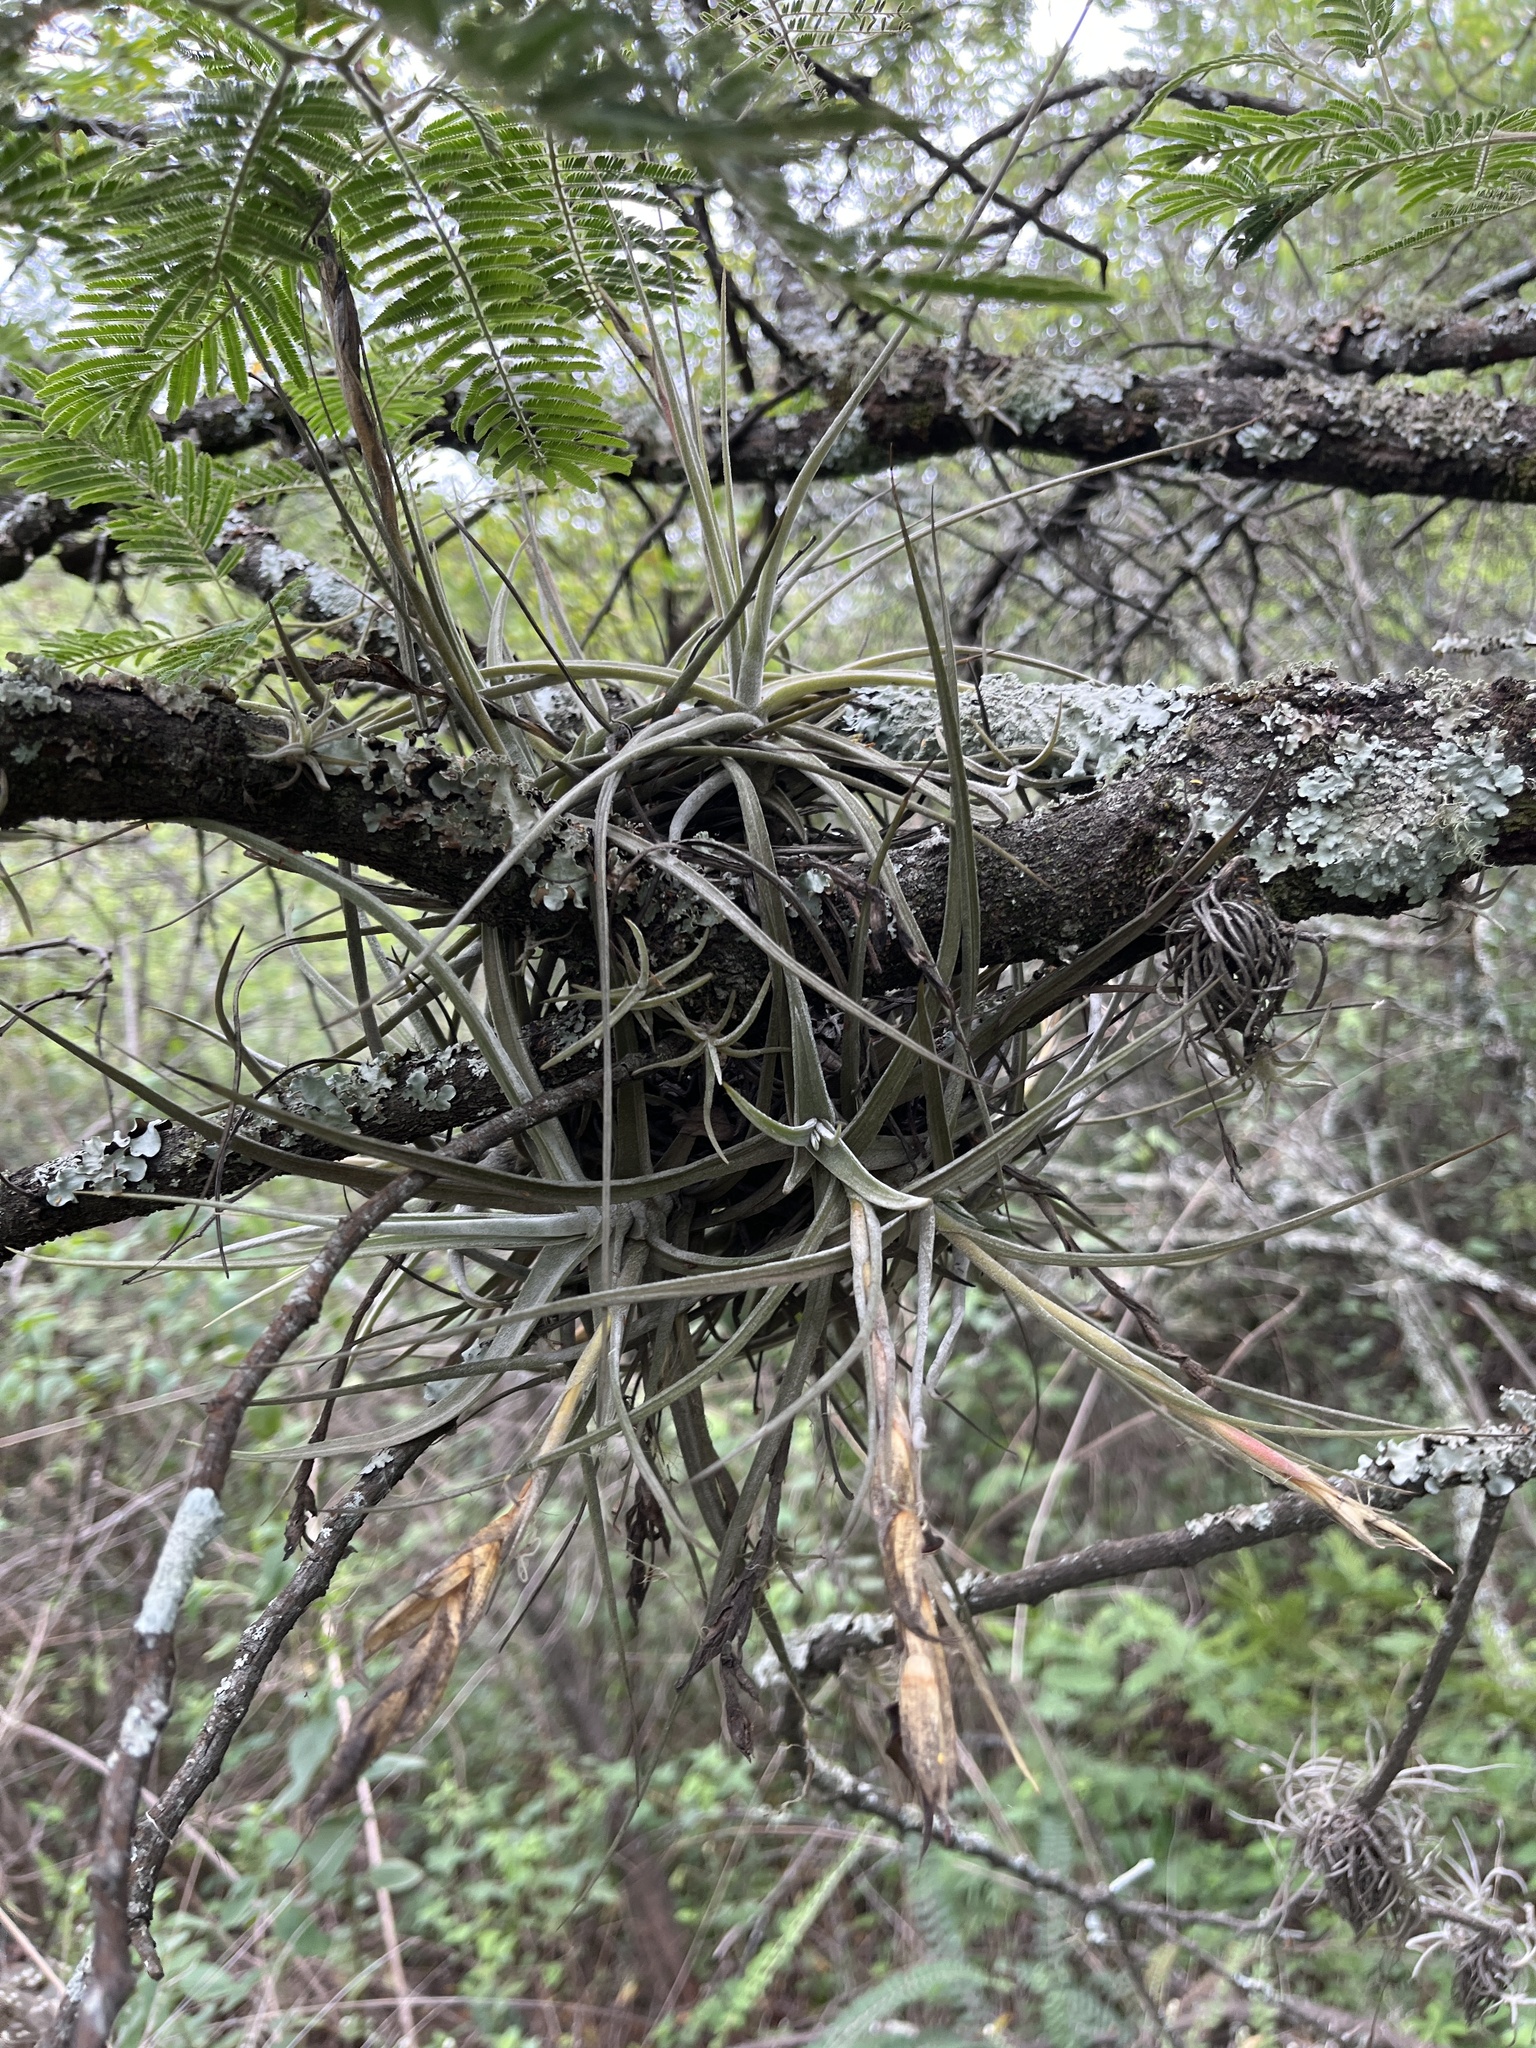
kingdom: Plantae
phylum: Tracheophyta
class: Liliopsida
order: Poales
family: Bromeliaceae
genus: Tillandsia
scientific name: Tillandsia schiedeana
